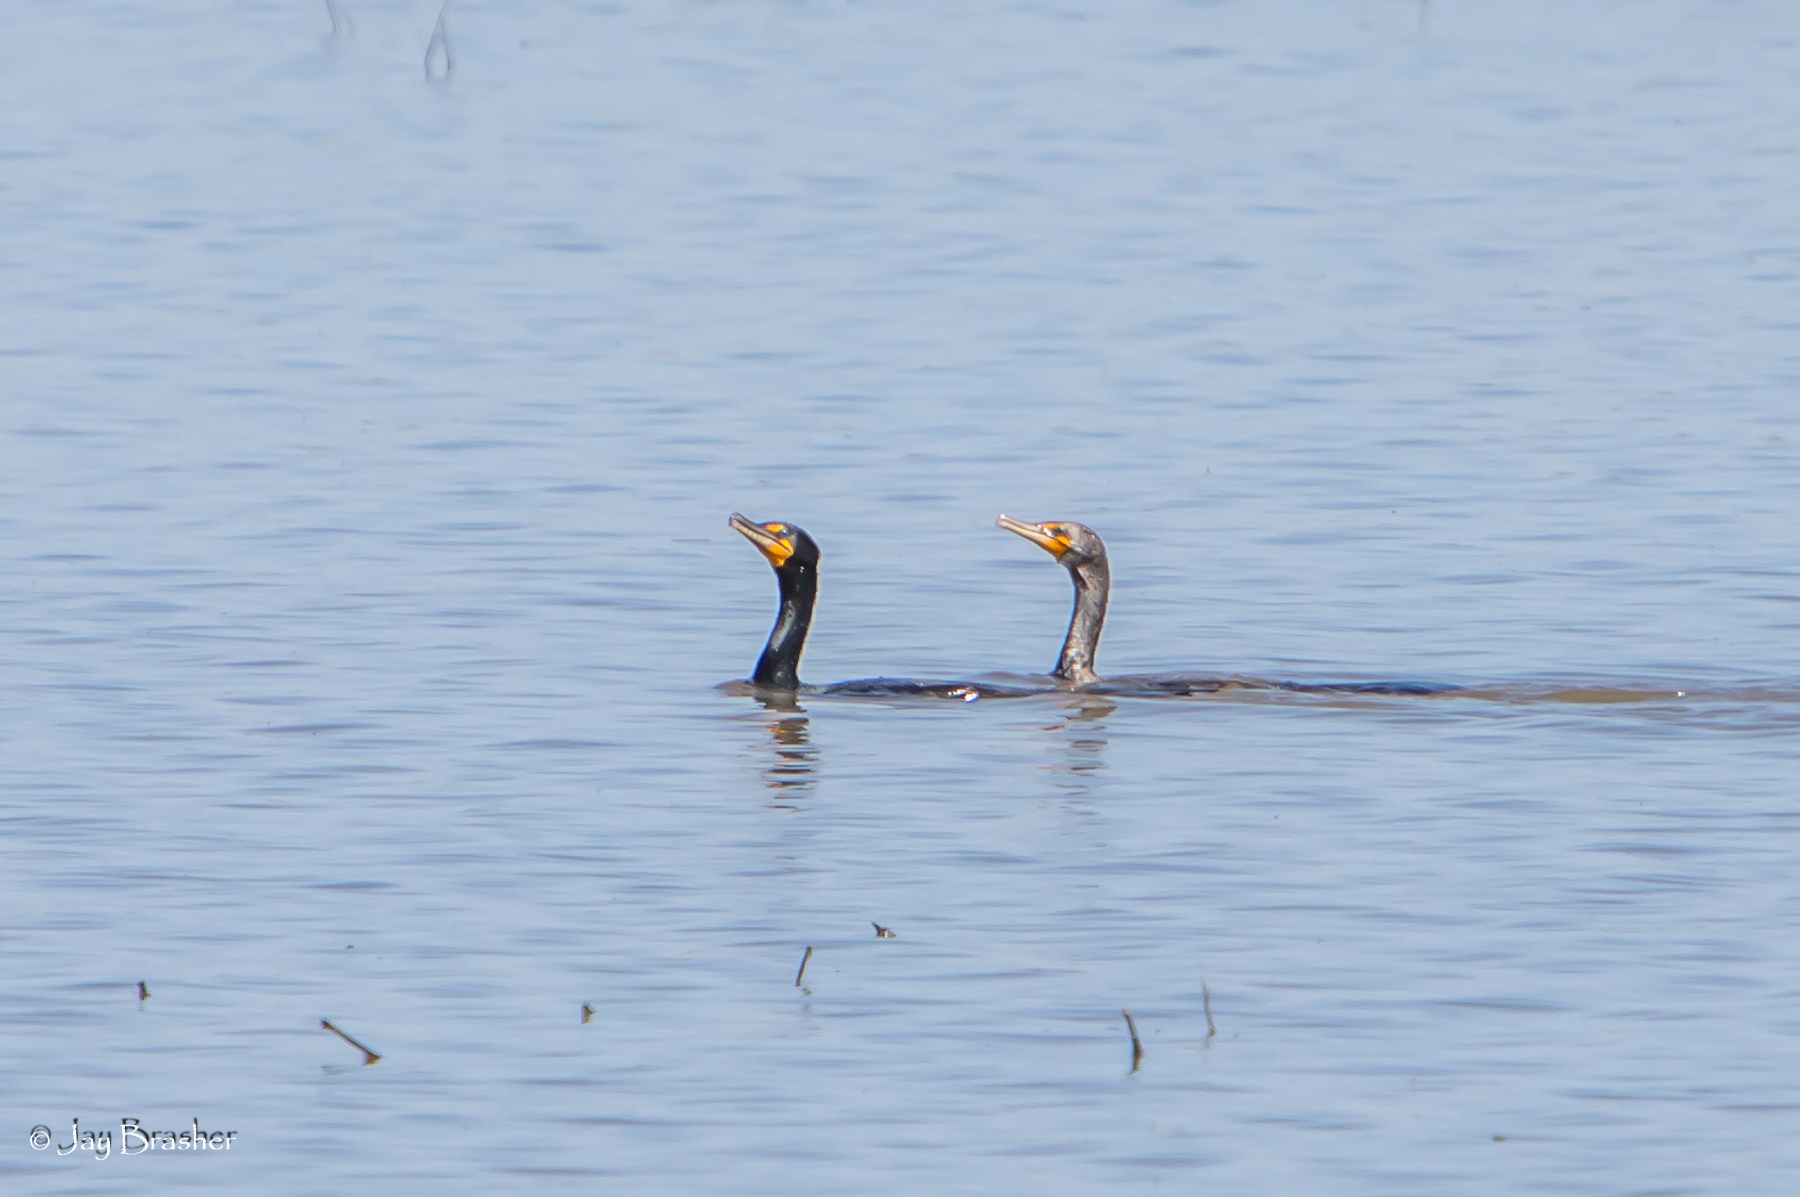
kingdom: Animalia
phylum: Chordata
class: Aves
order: Suliformes
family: Phalacrocoracidae
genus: Phalacrocorax
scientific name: Phalacrocorax auritus
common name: Double-crested cormorant
